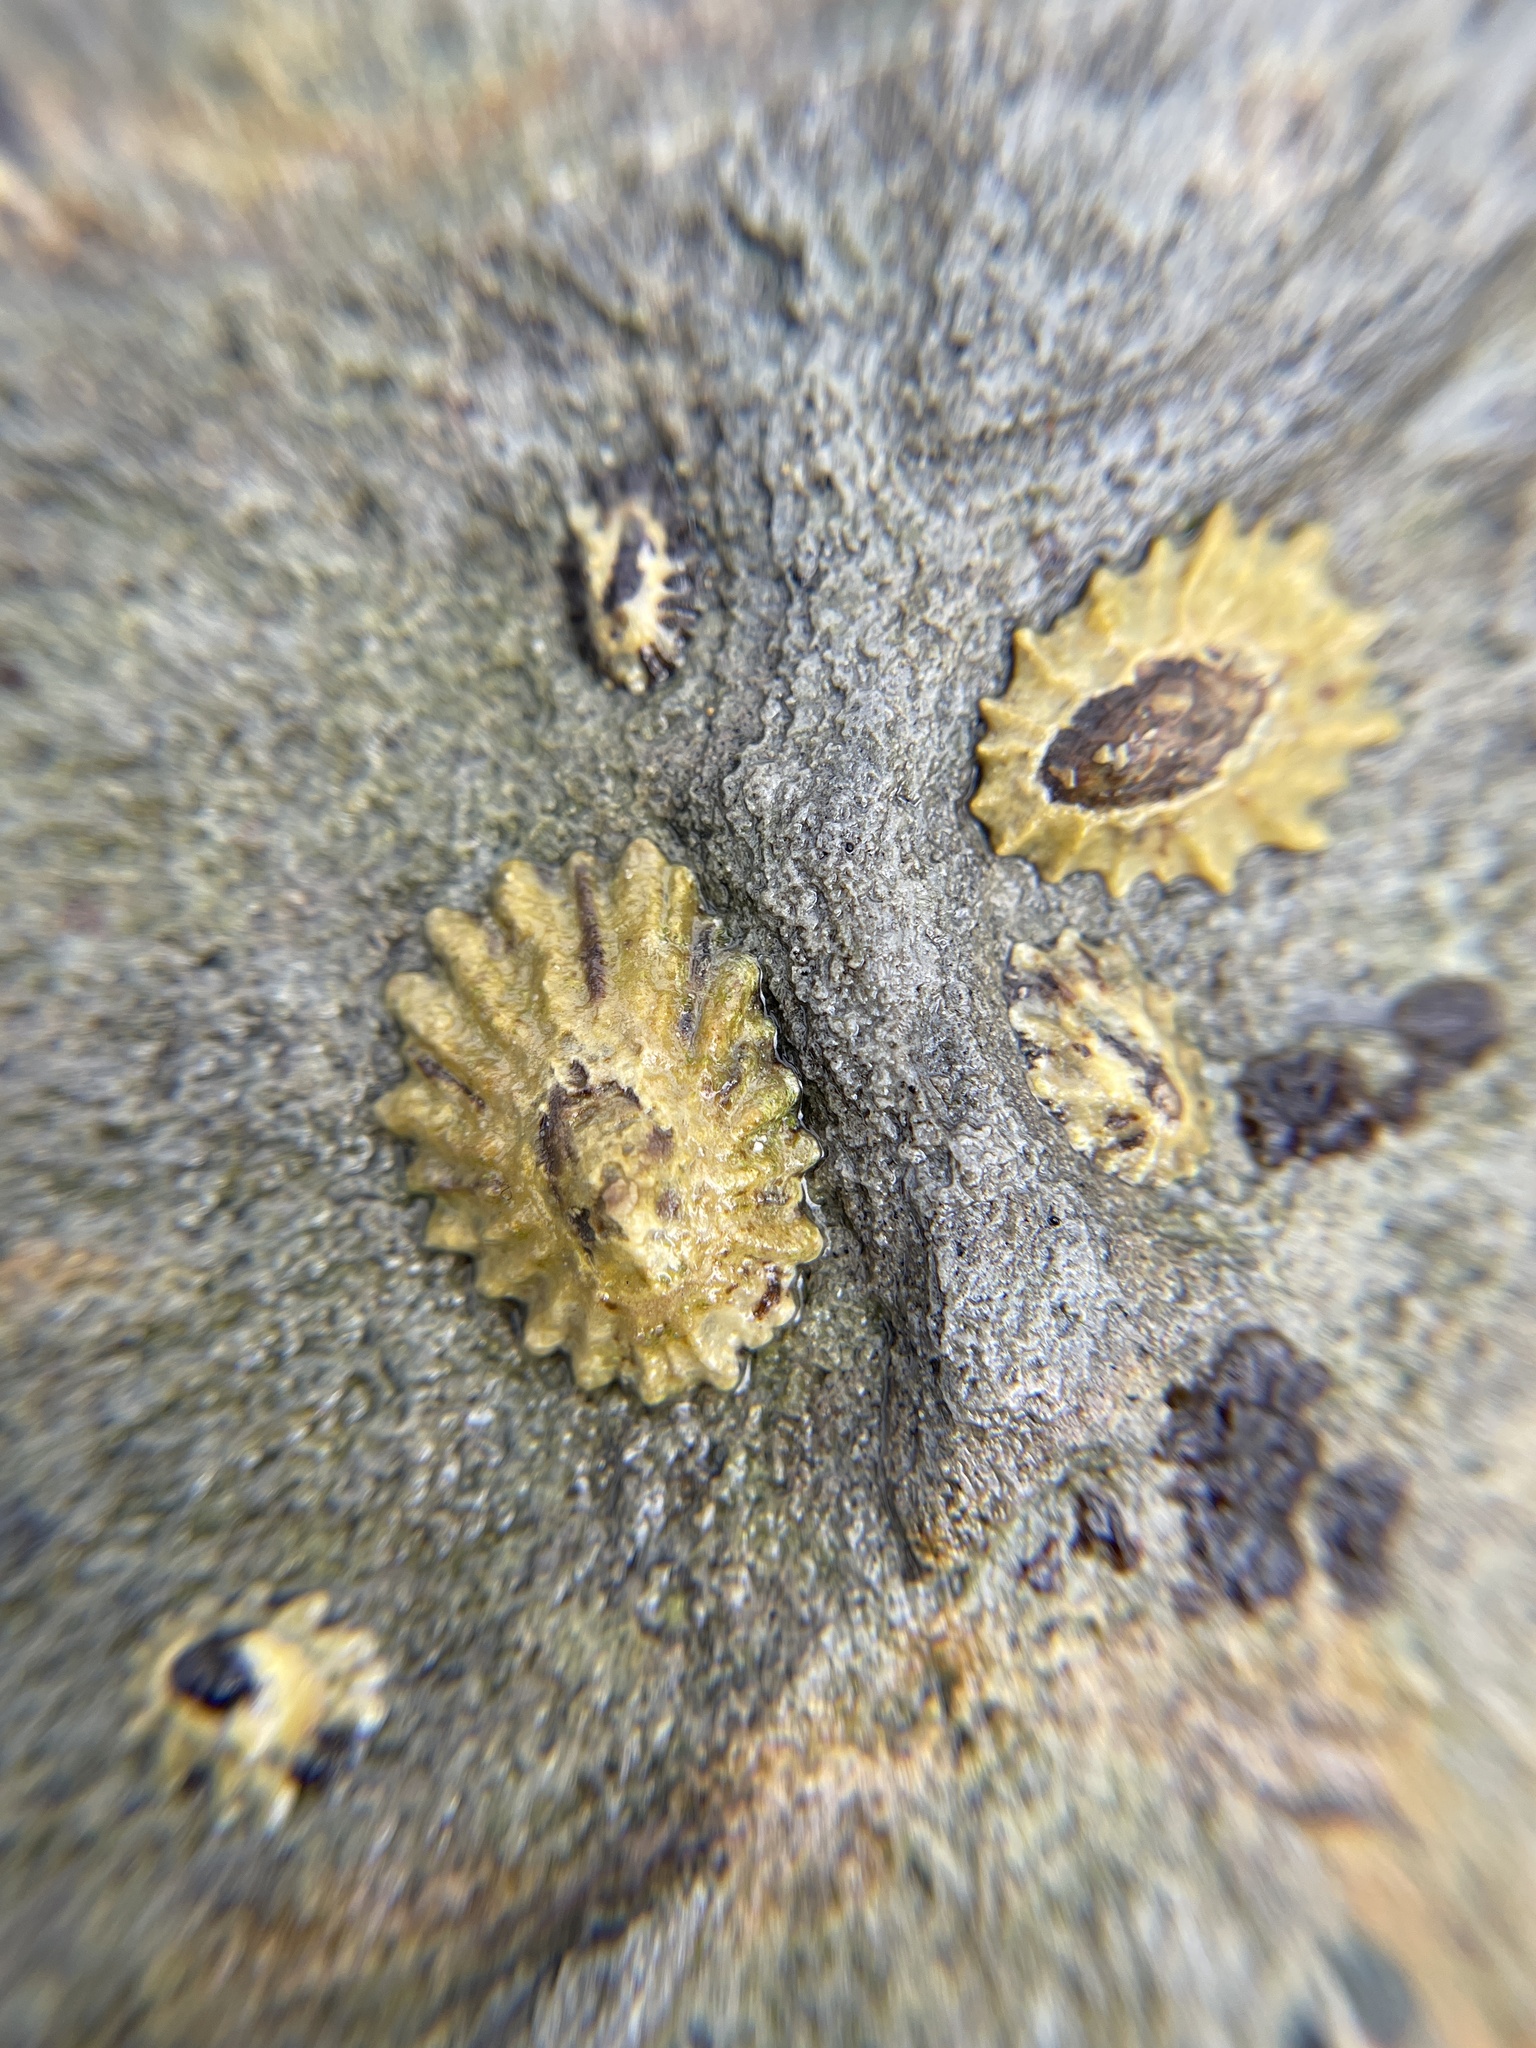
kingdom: Animalia
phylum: Mollusca
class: Gastropoda
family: Lottiidae
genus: Lottia
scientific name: Lottia scabra
